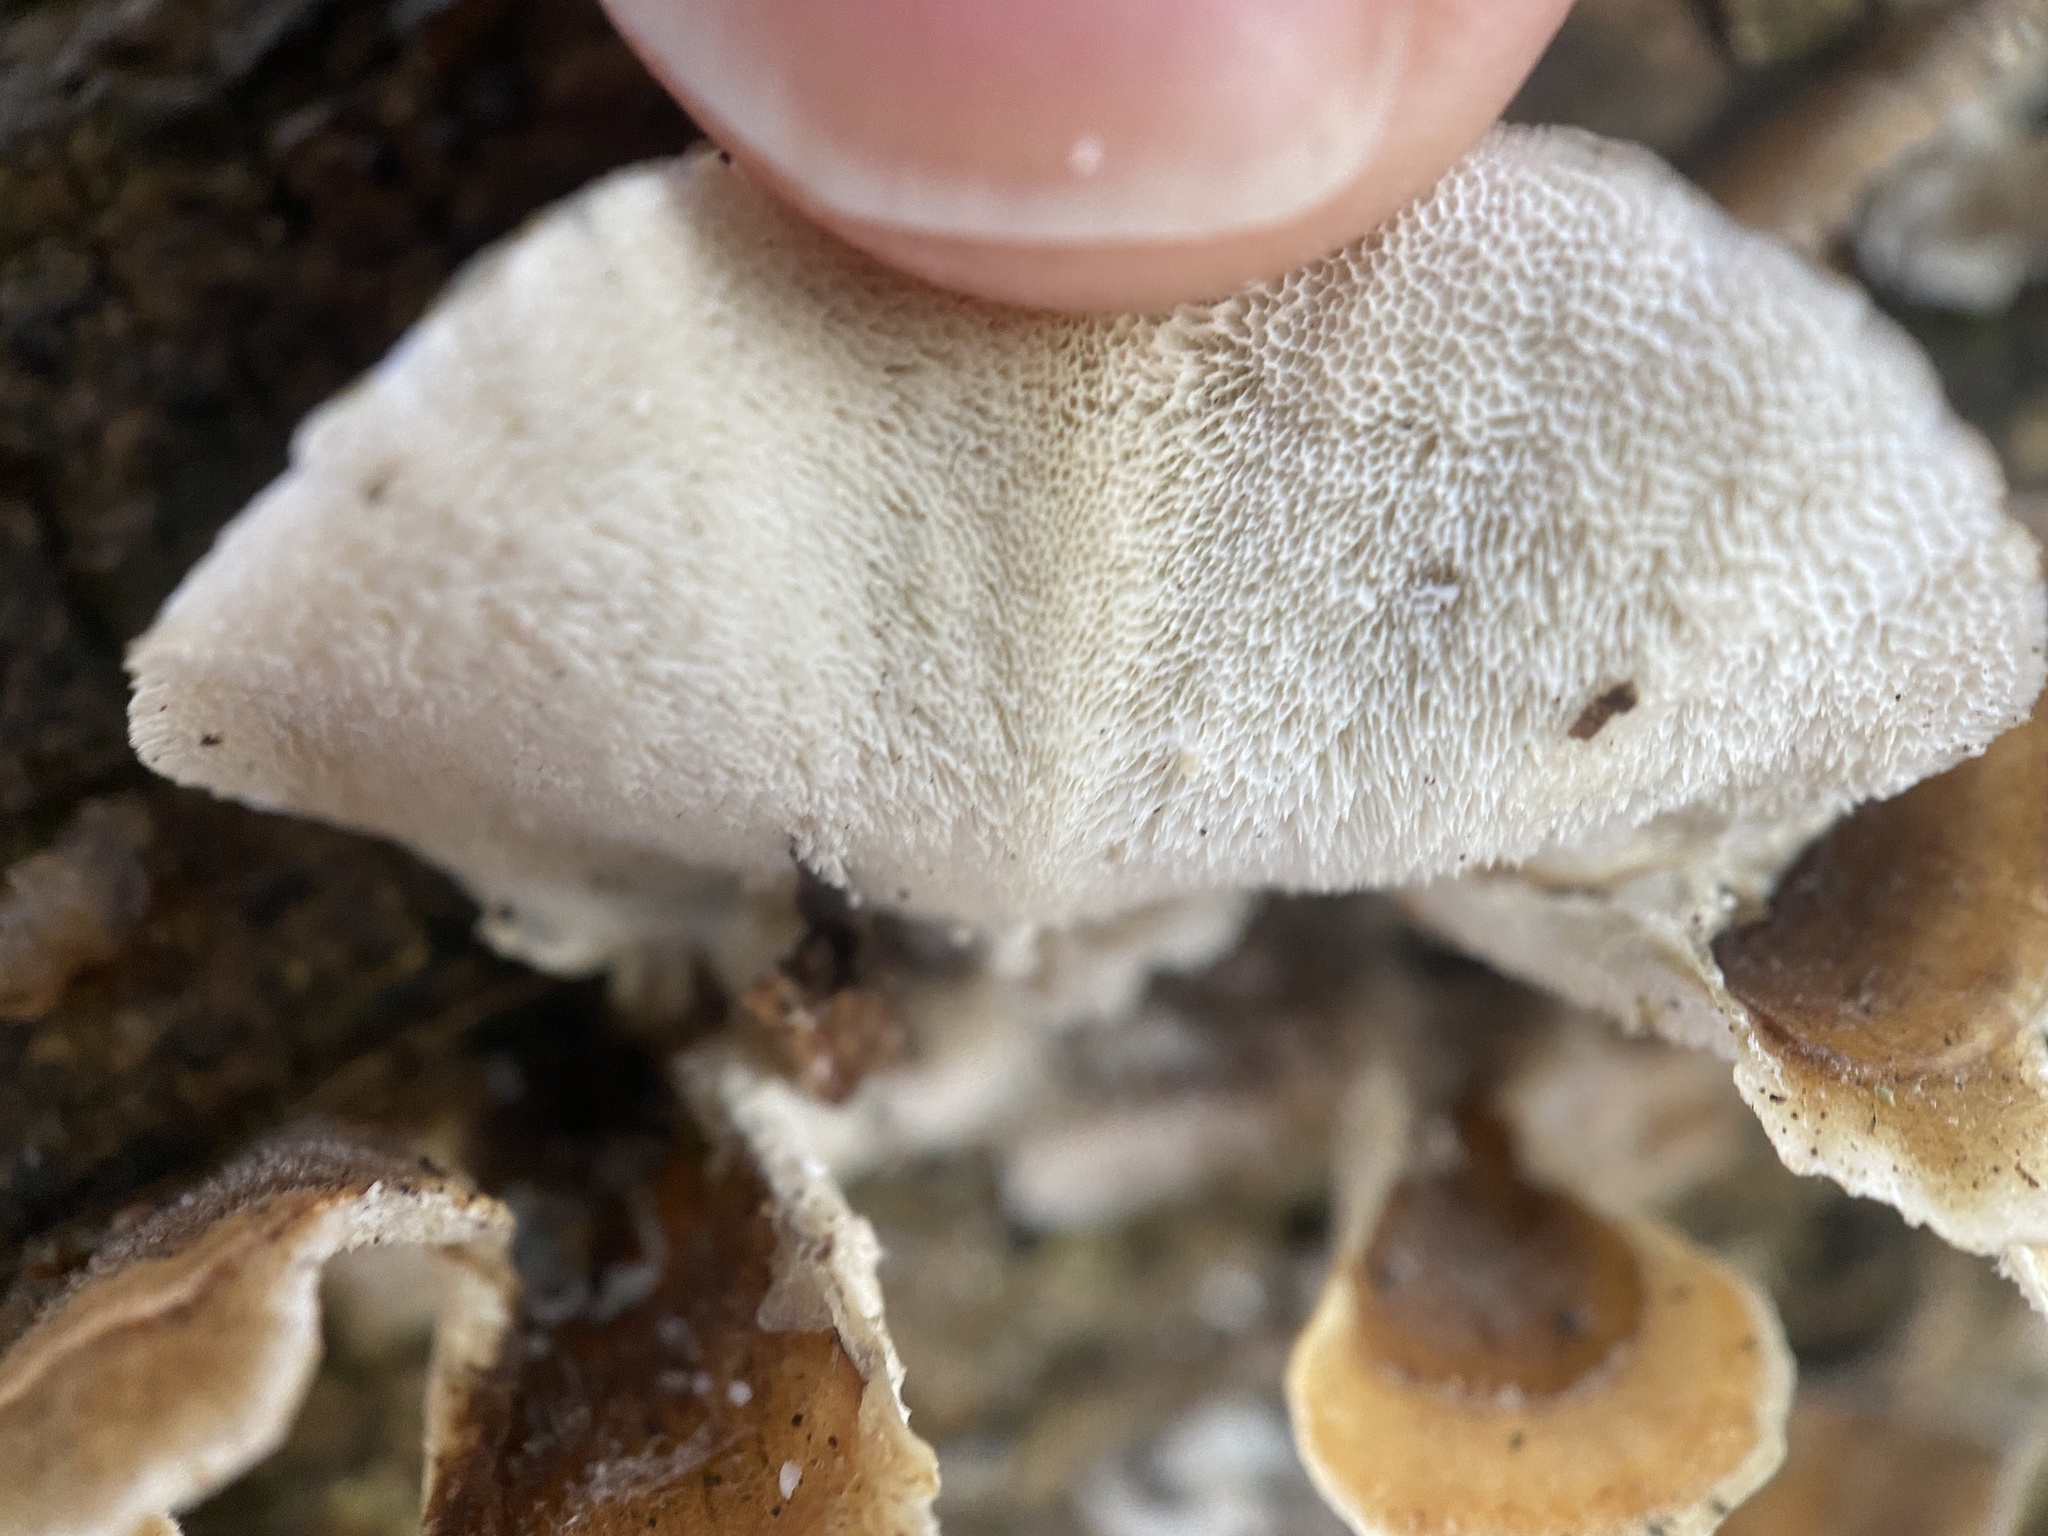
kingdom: Fungi
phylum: Basidiomycota
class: Agaricomycetes
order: Polyporales
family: Polyporaceae
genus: Trametes
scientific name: Trametes versicolor
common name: Turkeytail
